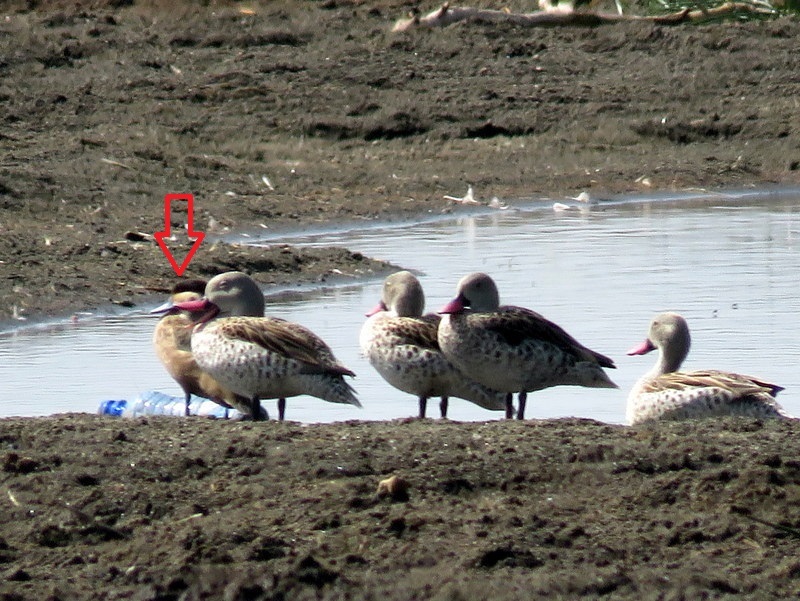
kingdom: Animalia
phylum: Chordata
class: Aves
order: Anseriformes
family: Anatidae
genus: Spatula
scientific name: Spatula hottentota
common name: Blue-billed teal
